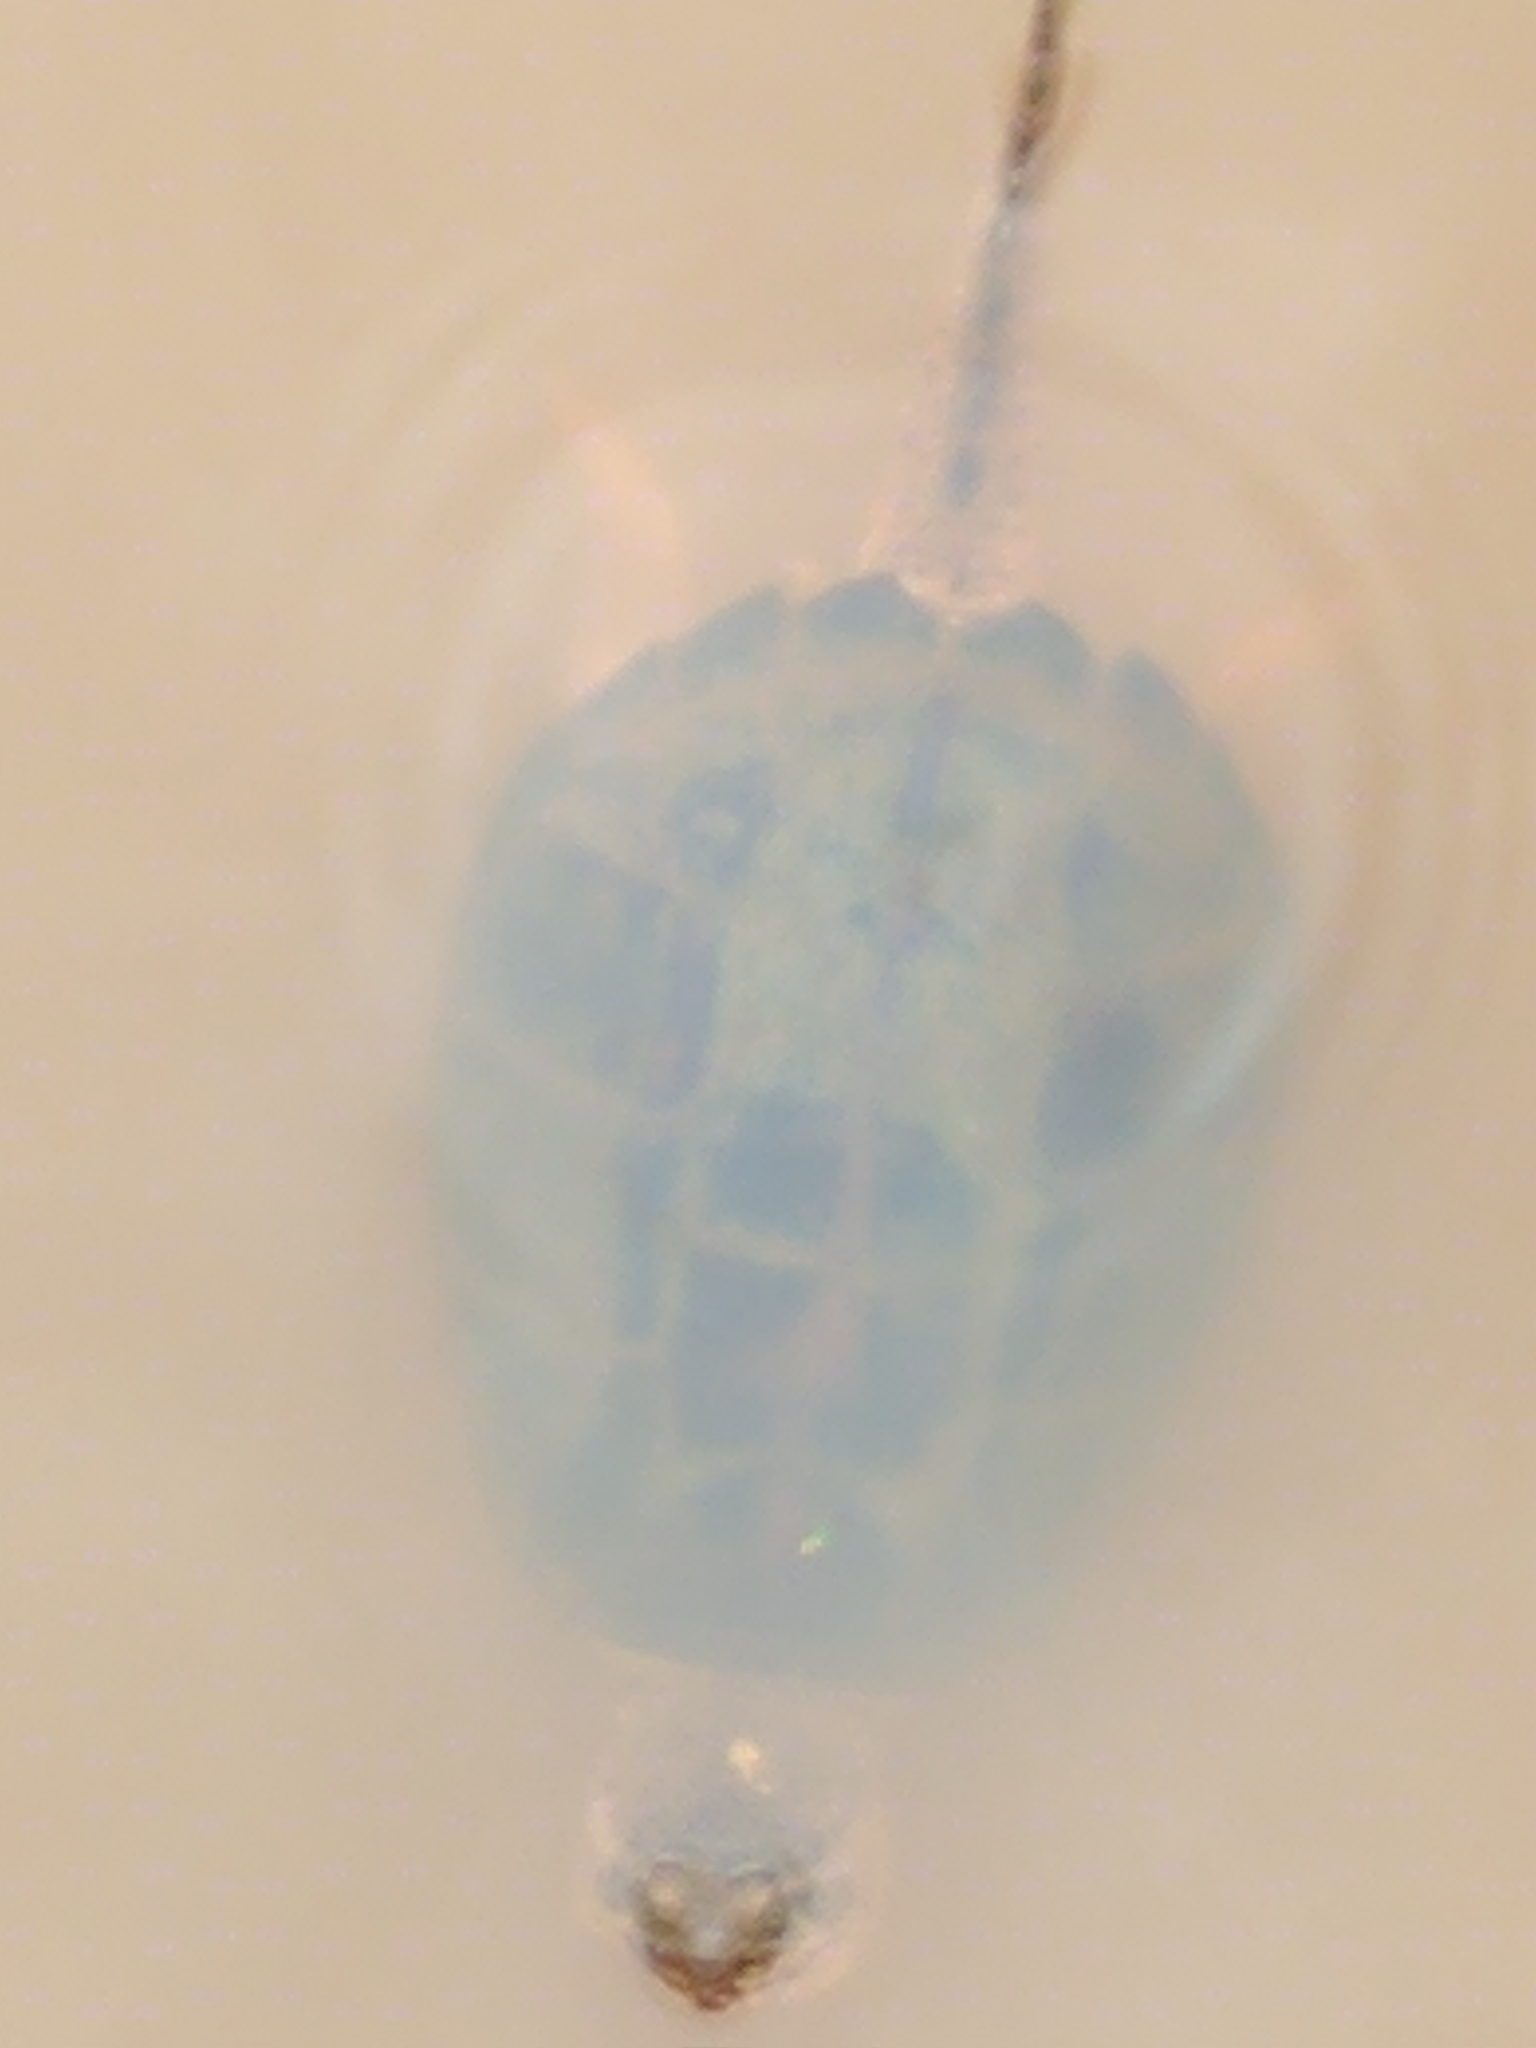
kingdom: Animalia
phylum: Chordata
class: Testudines
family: Chelydridae
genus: Chelydra
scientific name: Chelydra serpentina
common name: Common snapping turtle
